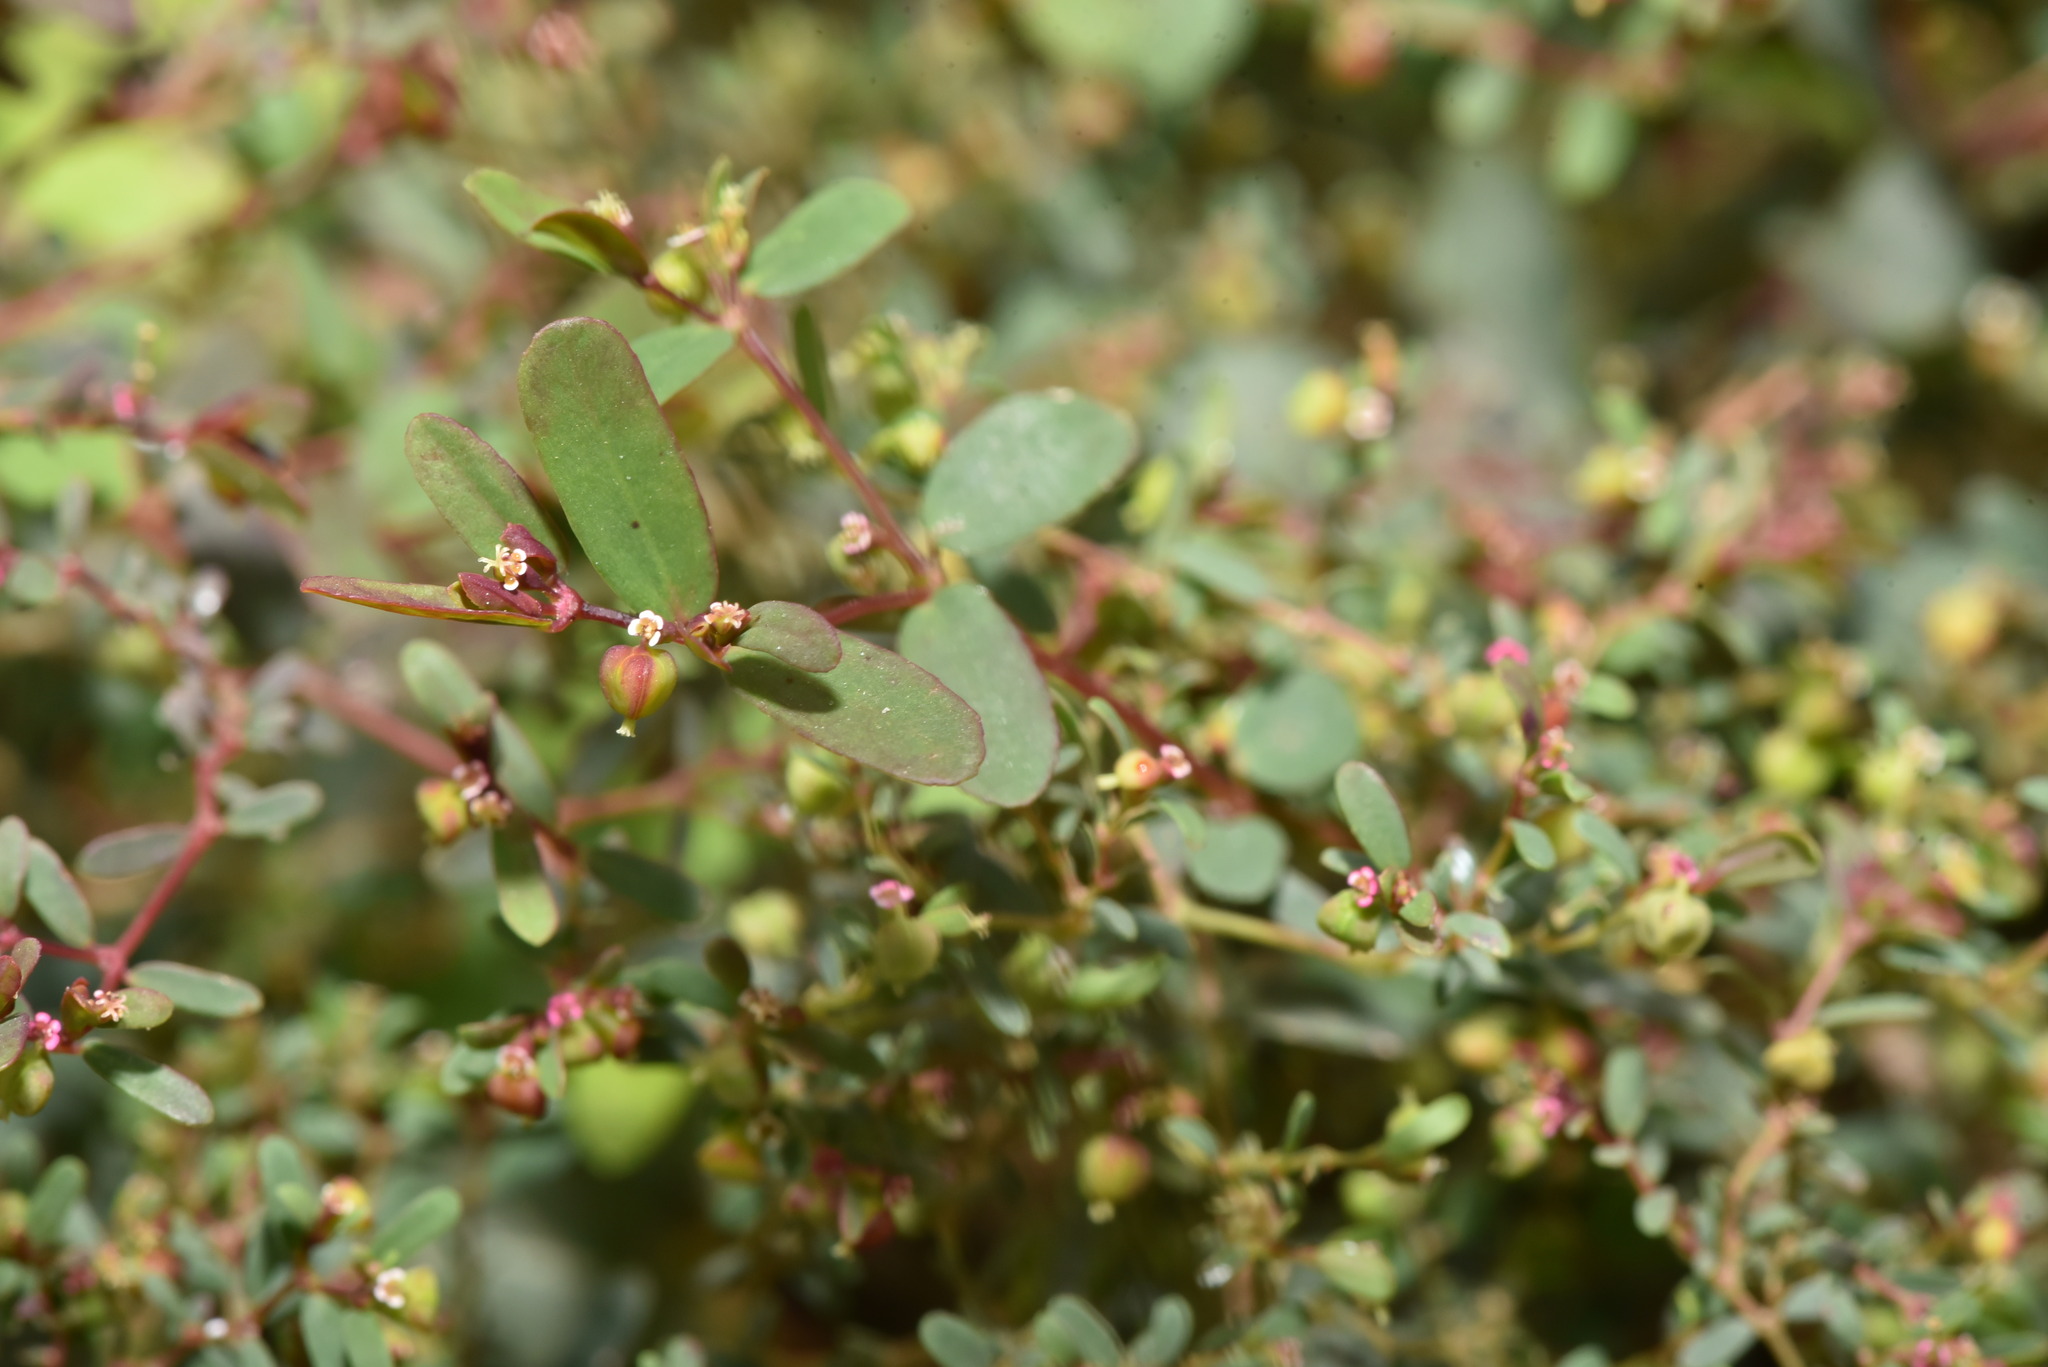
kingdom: Plantae
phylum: Tracheophyta
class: Magnoliopsida
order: Malpighiales
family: Euphorbiaceae
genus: Euphorbia
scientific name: Euphorbia hyssopifolia
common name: Hyssopleaf sandmat
